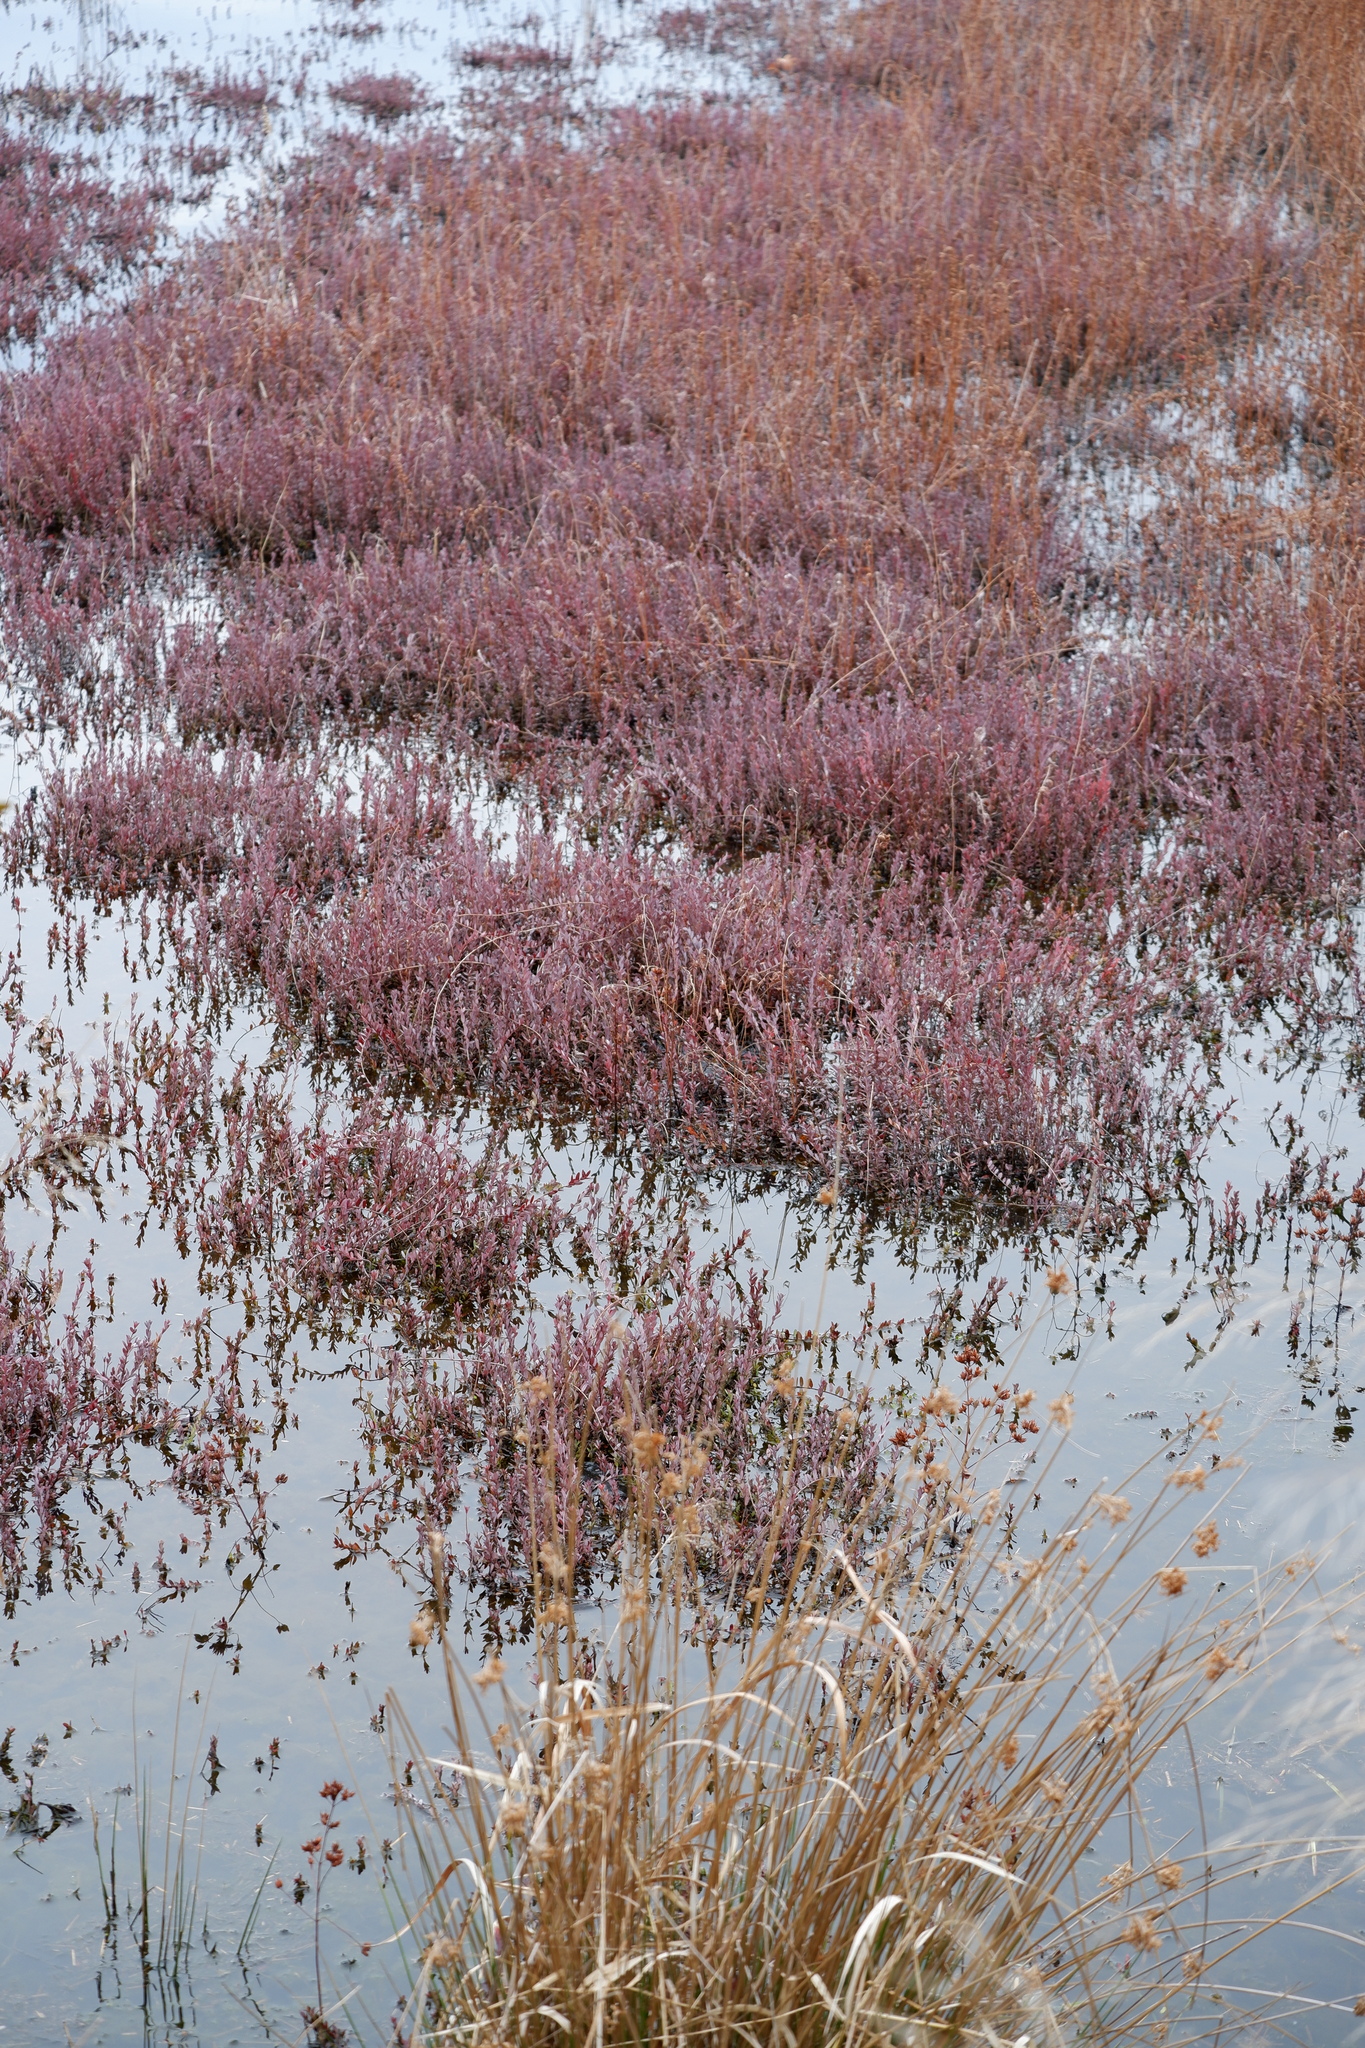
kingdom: Plantae
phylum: Tracheophyta
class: Magnoliopsida
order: Ericales
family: Ericaceae
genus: Vaccinium
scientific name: Vaccinium macrocarpon
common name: American cranberry
